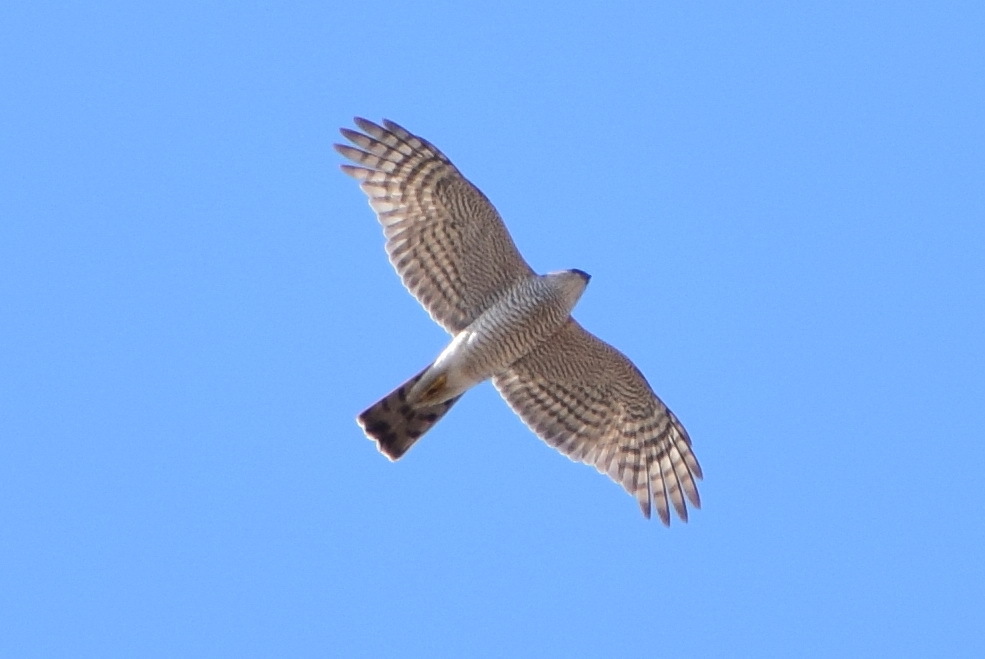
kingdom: Animalia
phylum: Chordata
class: Aves
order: Accipitriformes
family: Accipitridae
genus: Accipiter
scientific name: Accipiter nisus
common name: Eurasian sparrowhawk
